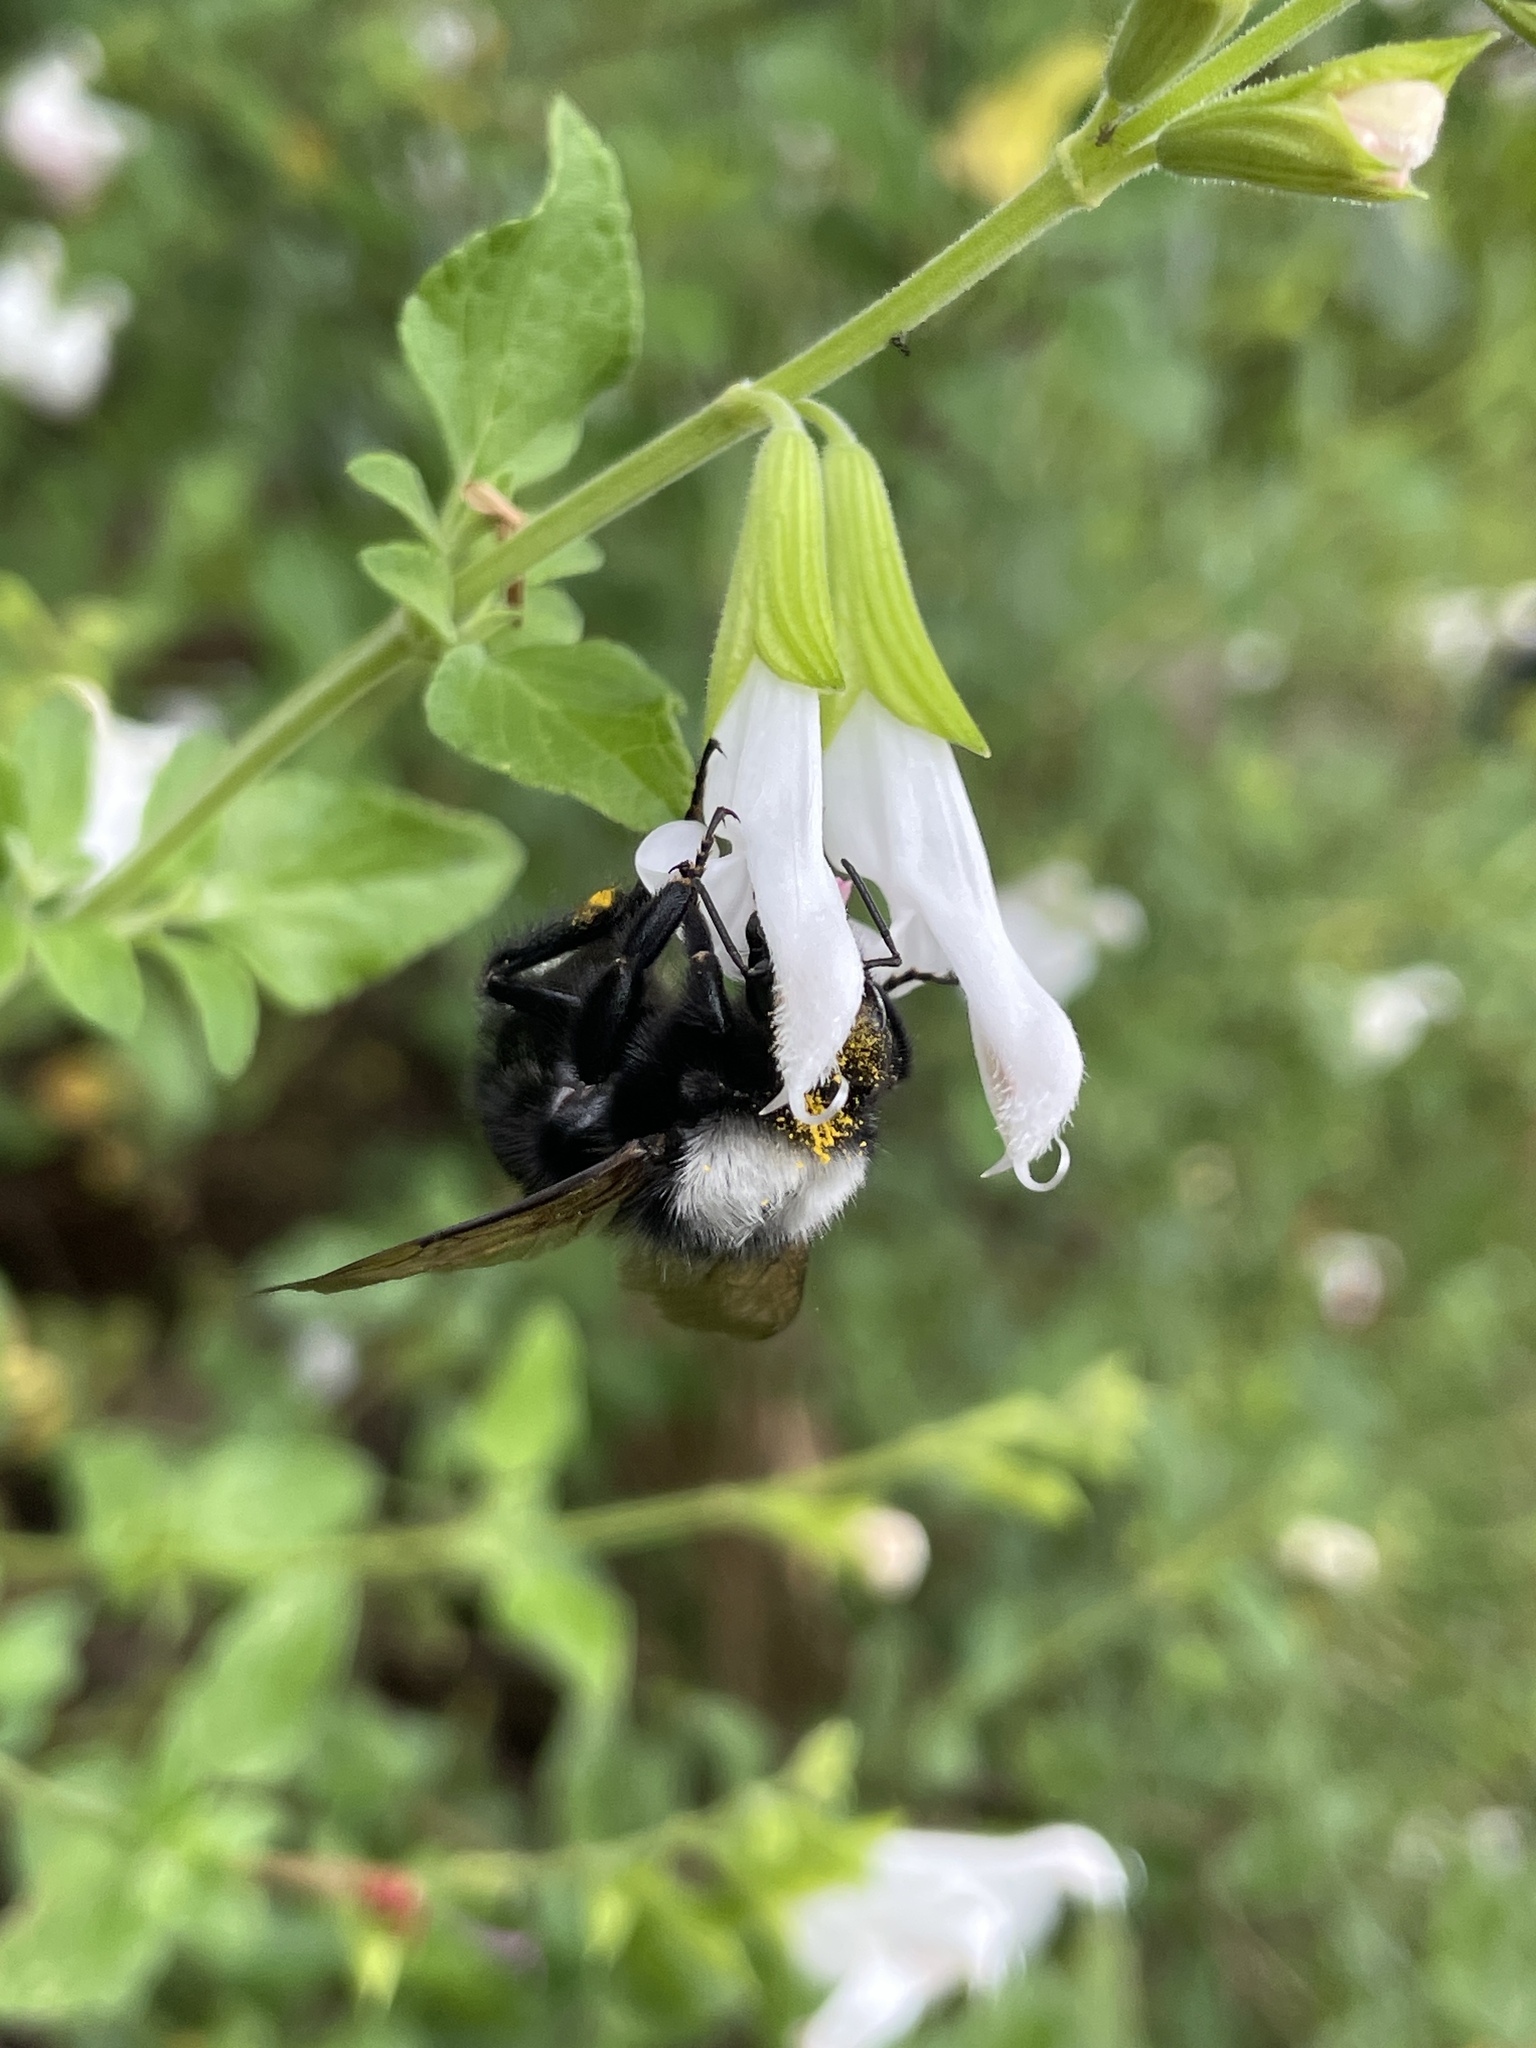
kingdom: Animalia
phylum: Arthropoda
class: Insecta
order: Hymenoptera
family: Apidae
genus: Bombus
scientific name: Bombus funebris
